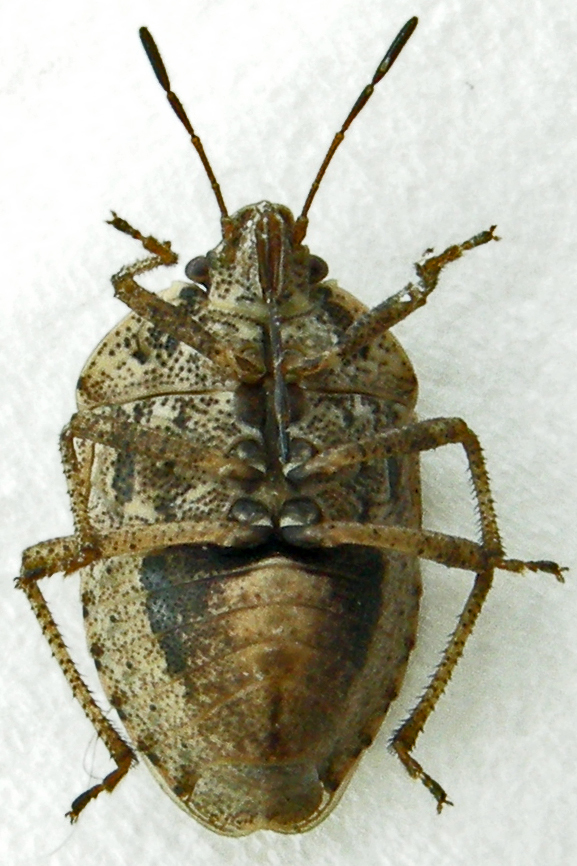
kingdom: Animalia
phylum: Arthropoda
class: Insecta
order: Hemiptera
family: Pentatomidae
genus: Hymenarcys
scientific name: Hymenarcys nervosa
